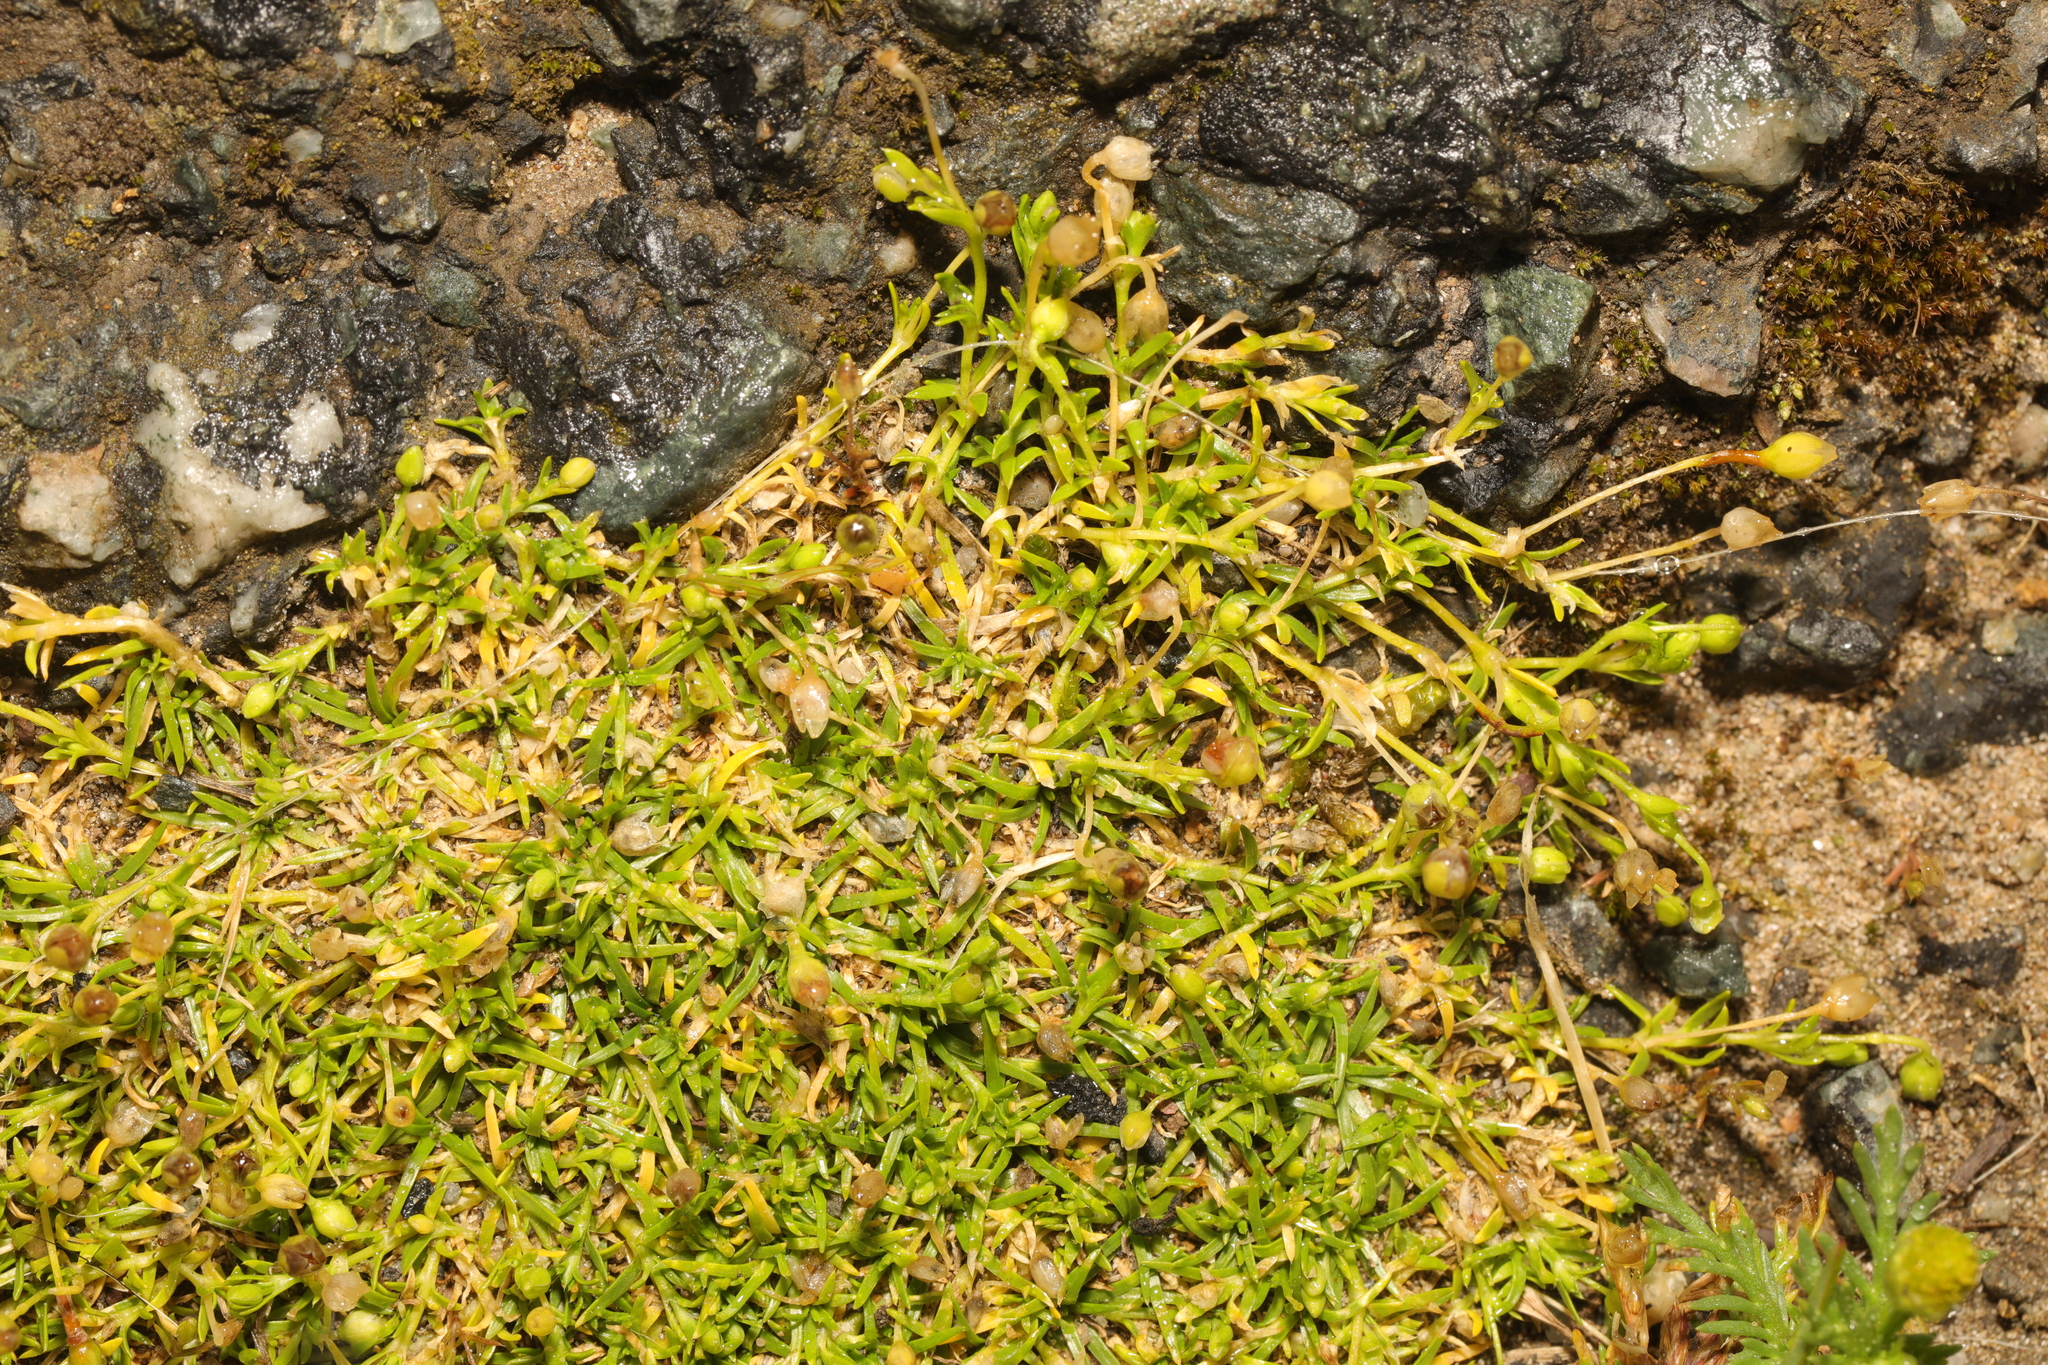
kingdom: Plantae
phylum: Tracheophyta
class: Magnoliopsida
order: Caryophyllales
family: Caryophyllaceae
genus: Sagina
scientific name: Sagina procumbens
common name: Procumbent pearlwort
